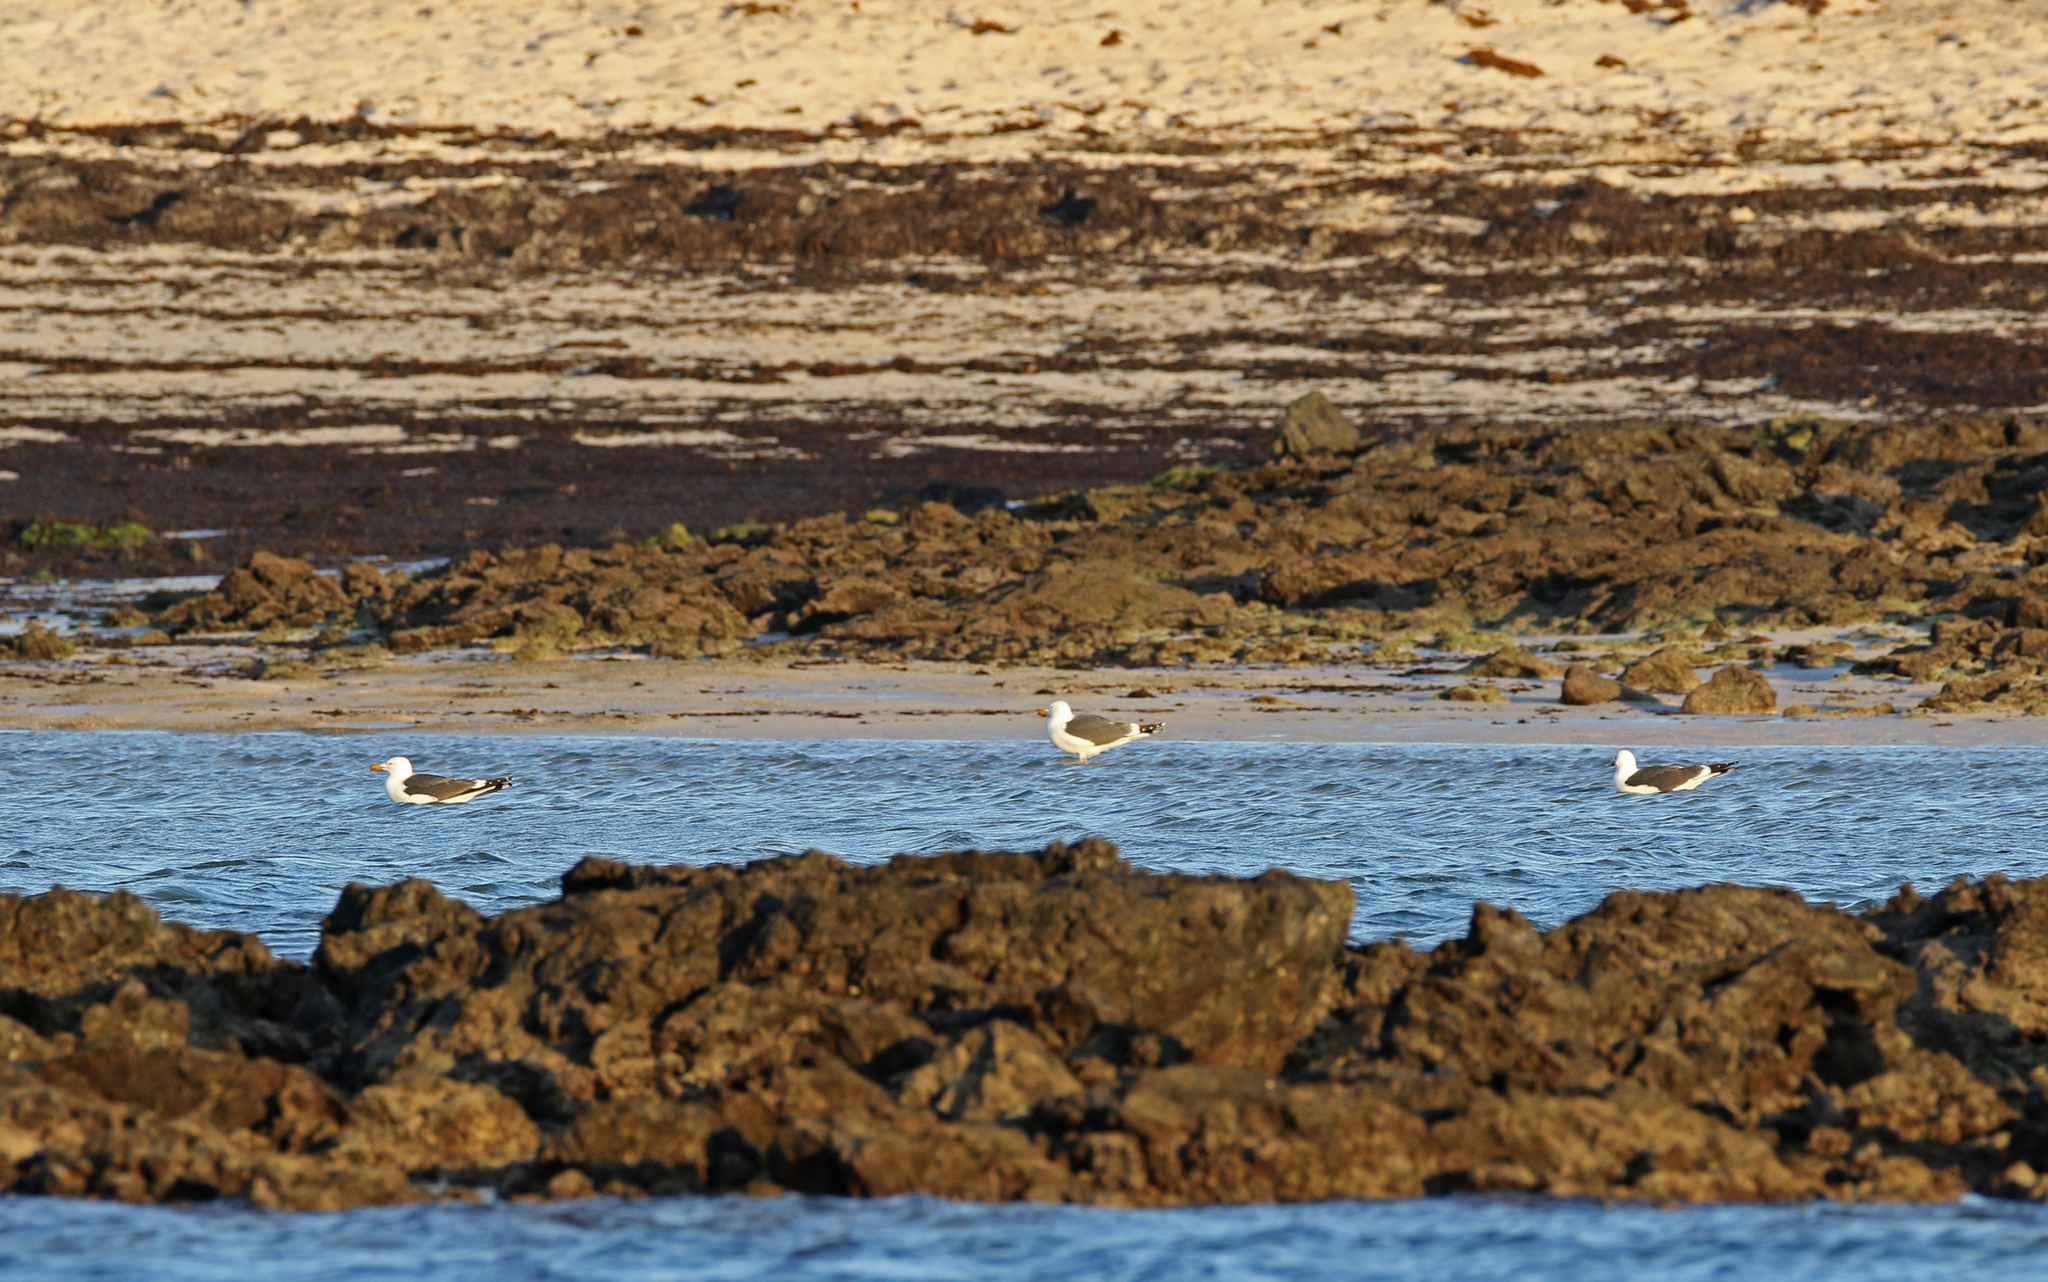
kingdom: Animalia
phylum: Chordata
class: Aves
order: Charadriiformes
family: Laridae
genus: Larus
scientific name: Larus fuscus
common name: Lesser black-backed gull
